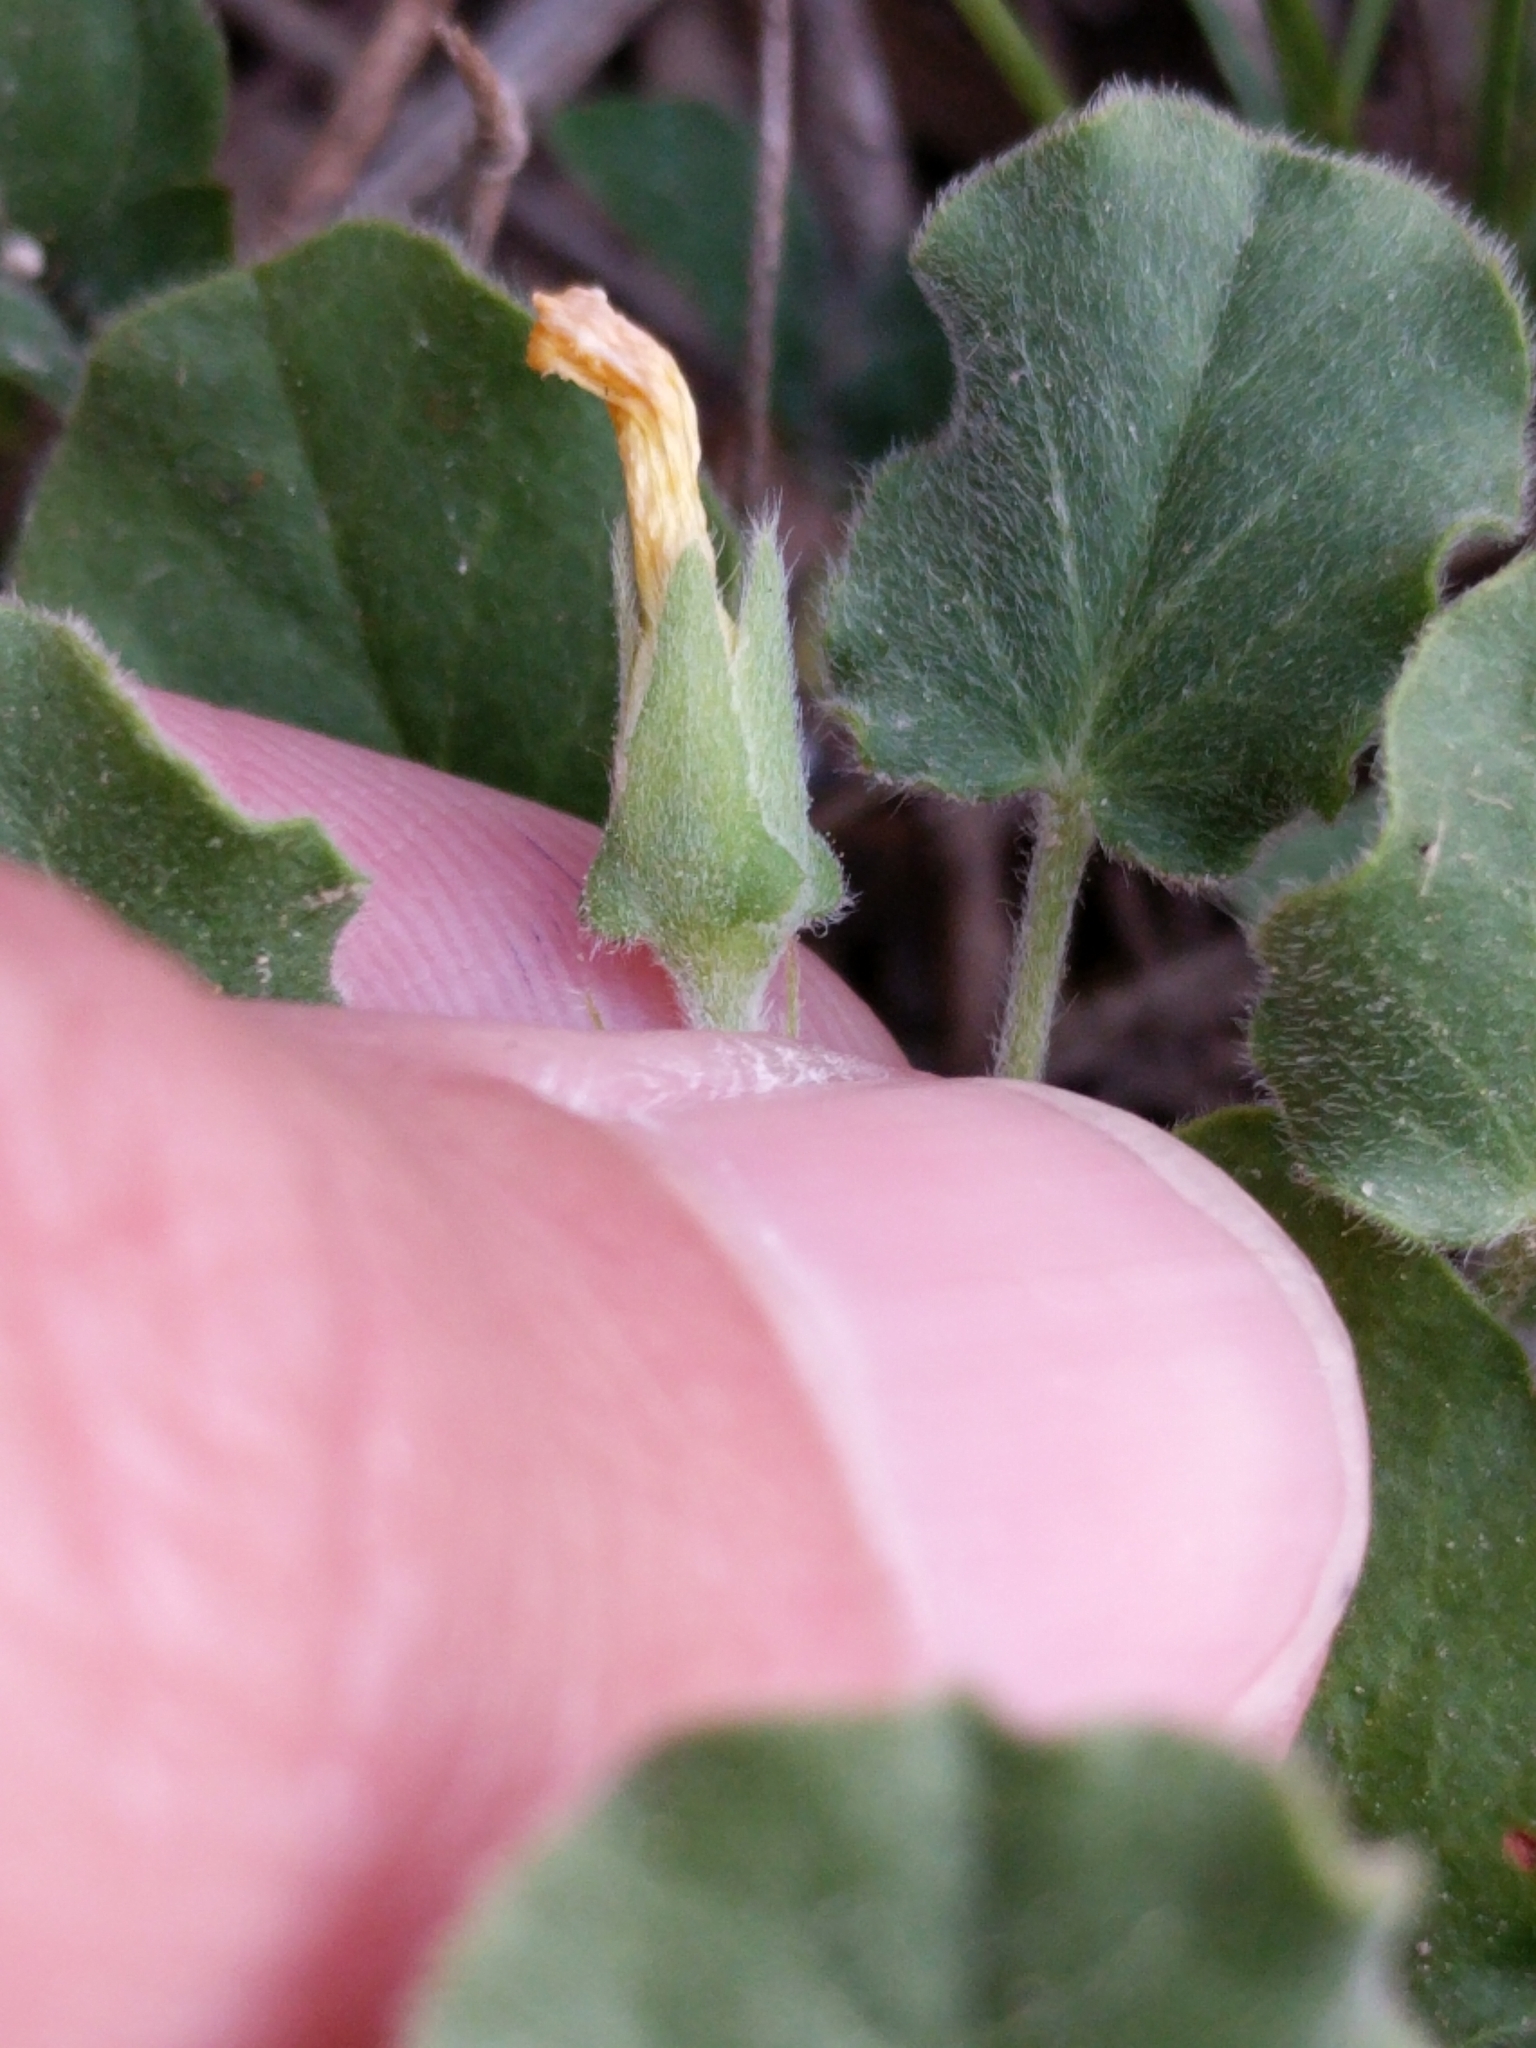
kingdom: Plantae
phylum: Tracheophyta
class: Magnoliopsida
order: Oxalidales
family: Oxalidaceae
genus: Oxalis
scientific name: Oxalis dichondrifolia
